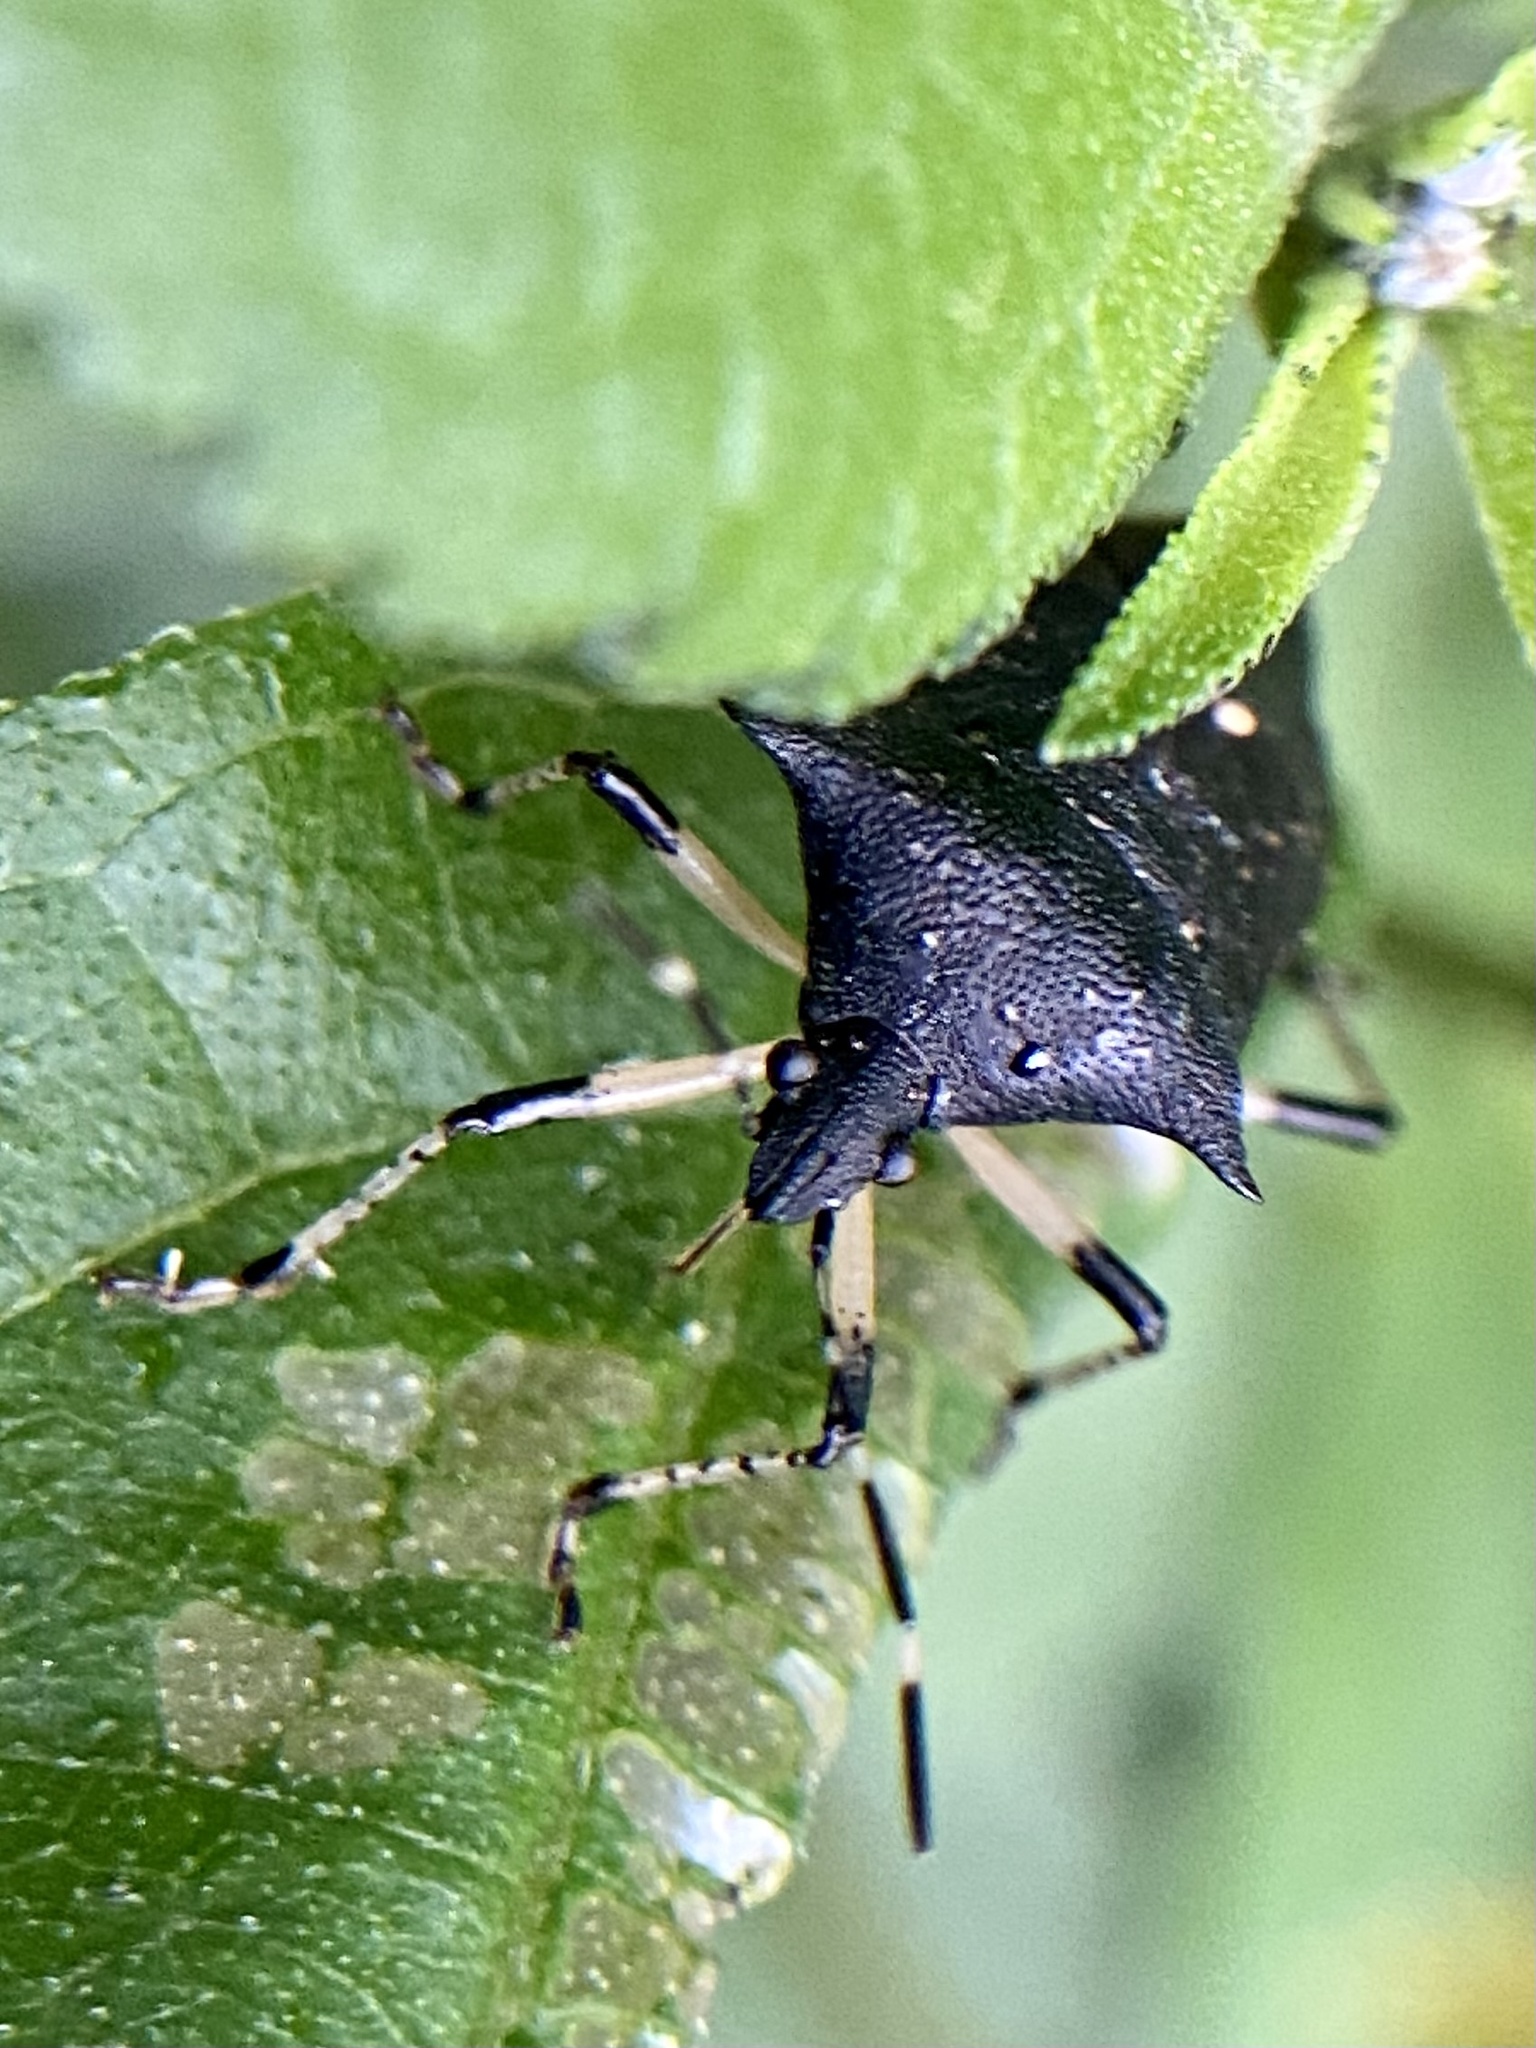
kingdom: Animalia
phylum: Arthropoda
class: Insecta
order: Hemiptera
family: Pentatomidae
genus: Proxys
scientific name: Proxys punctulatus
